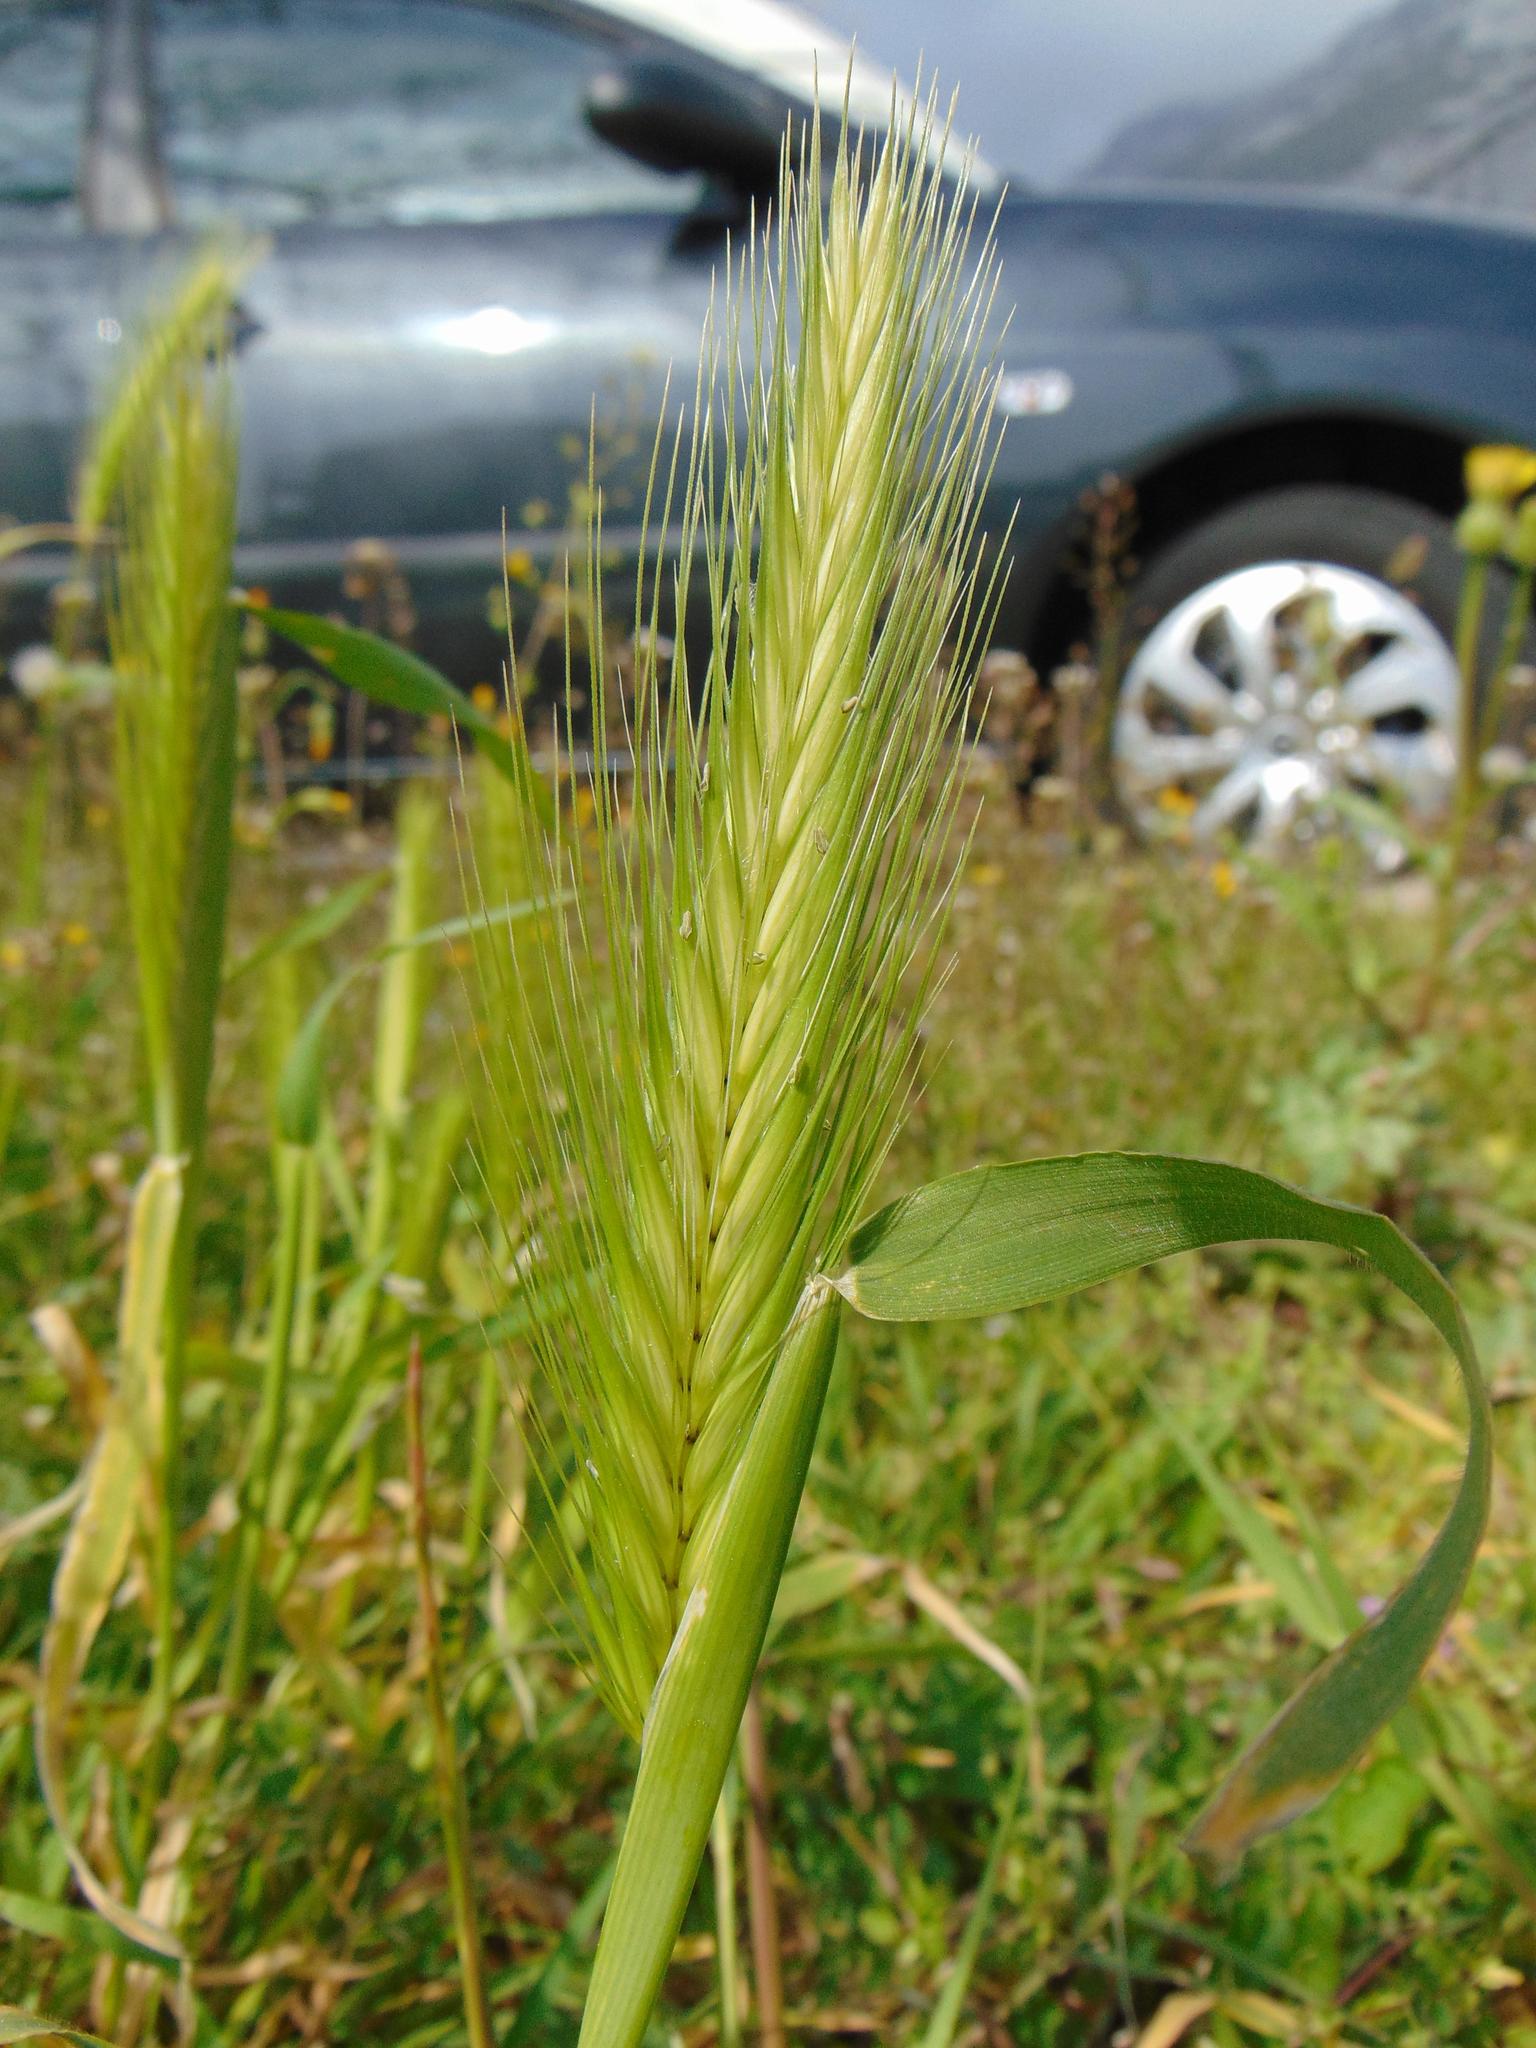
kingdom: Plantae
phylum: Tracheophyta
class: Liliopsida
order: Poales
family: Poaceae
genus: Hordeum
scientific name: Hordeum murinum
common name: Wall barley
